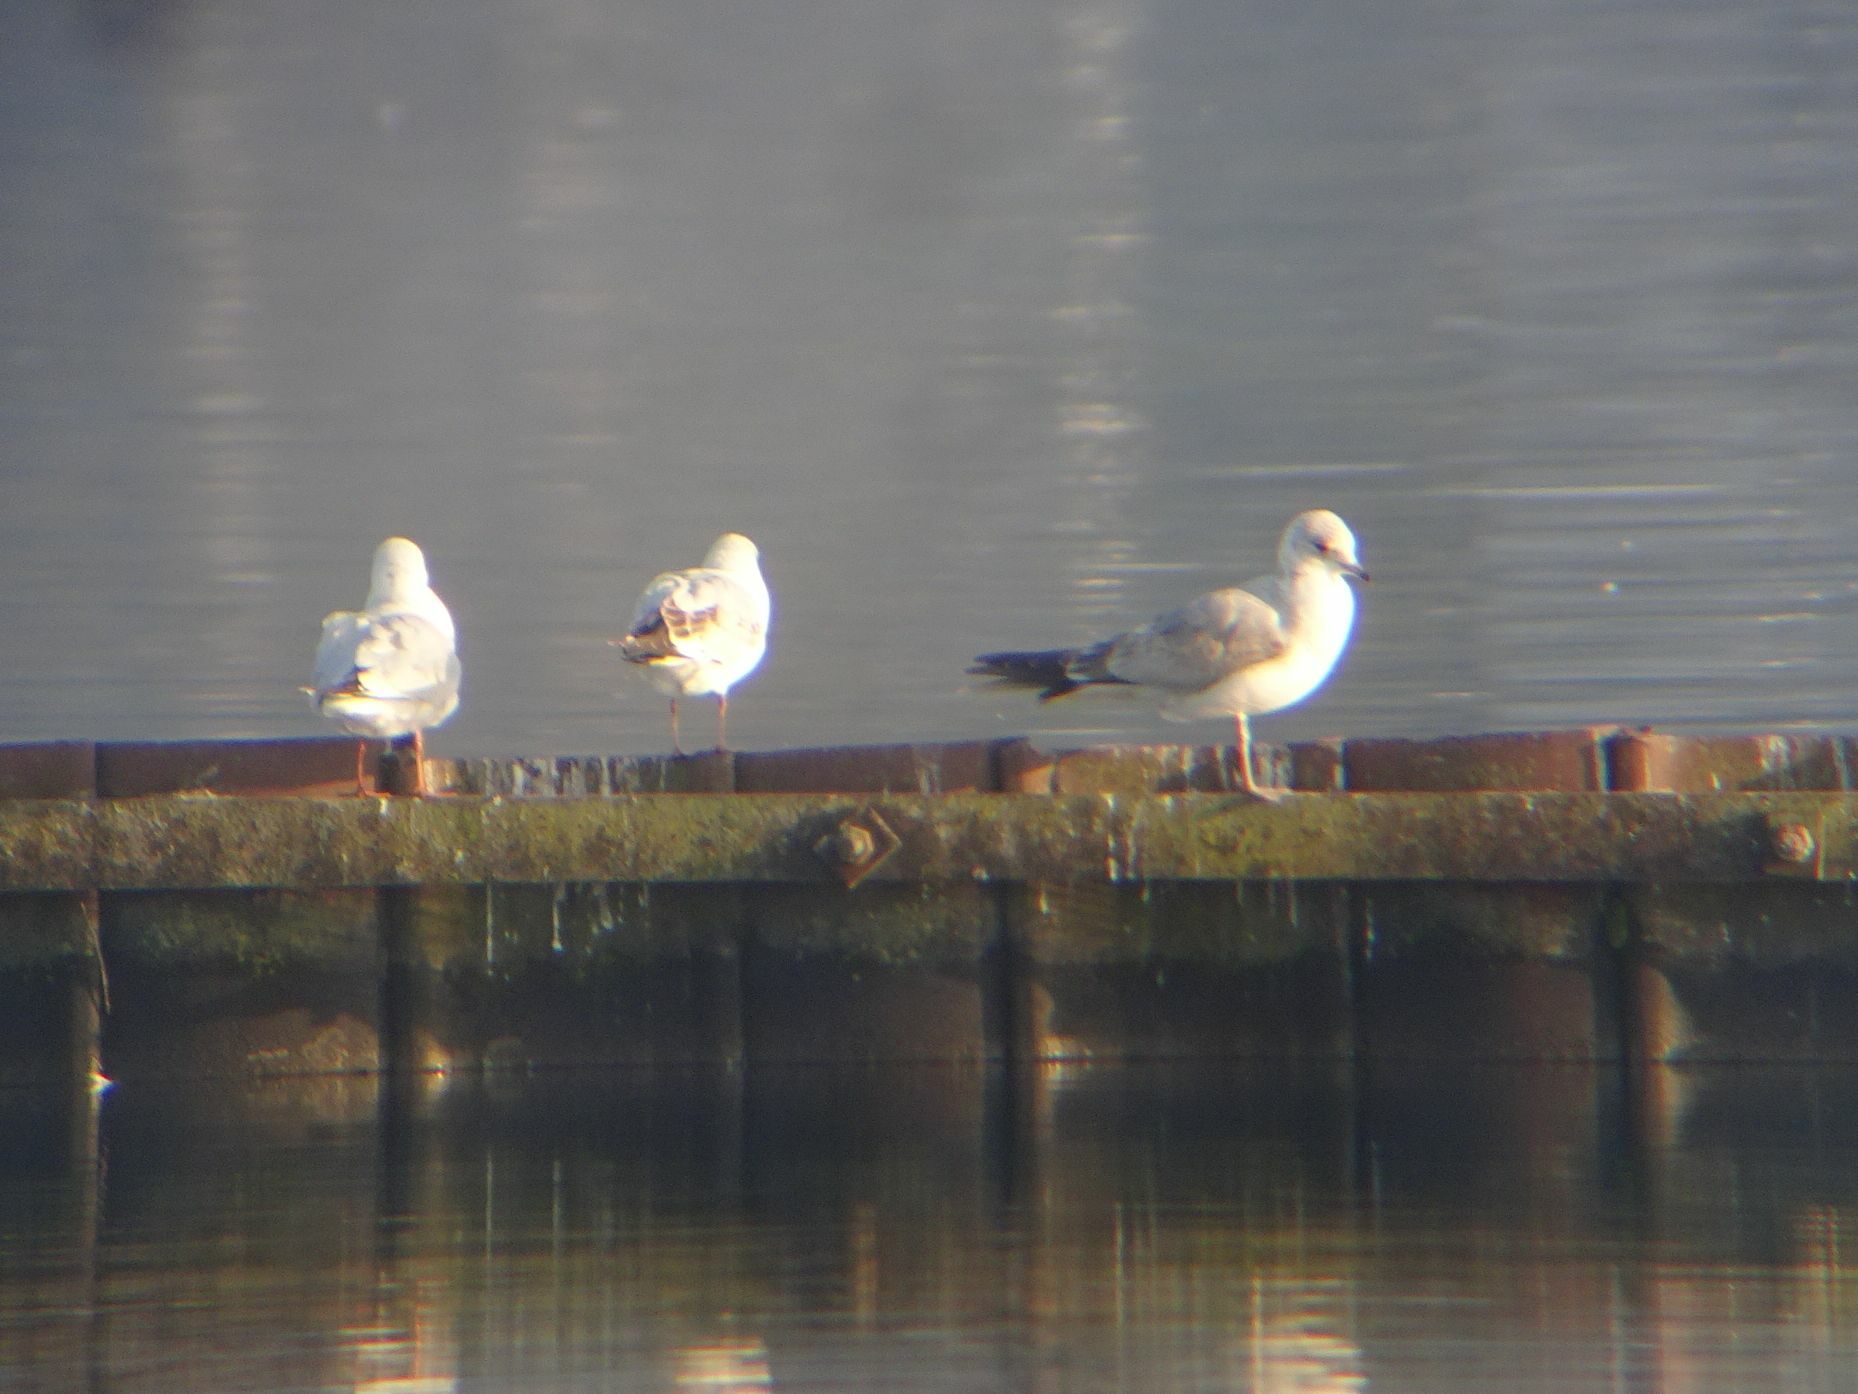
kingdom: Animalia
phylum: Chordata
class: Aves
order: Charadriiformes
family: Laridae
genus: Larus
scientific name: Larus canus
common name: Mew gull
